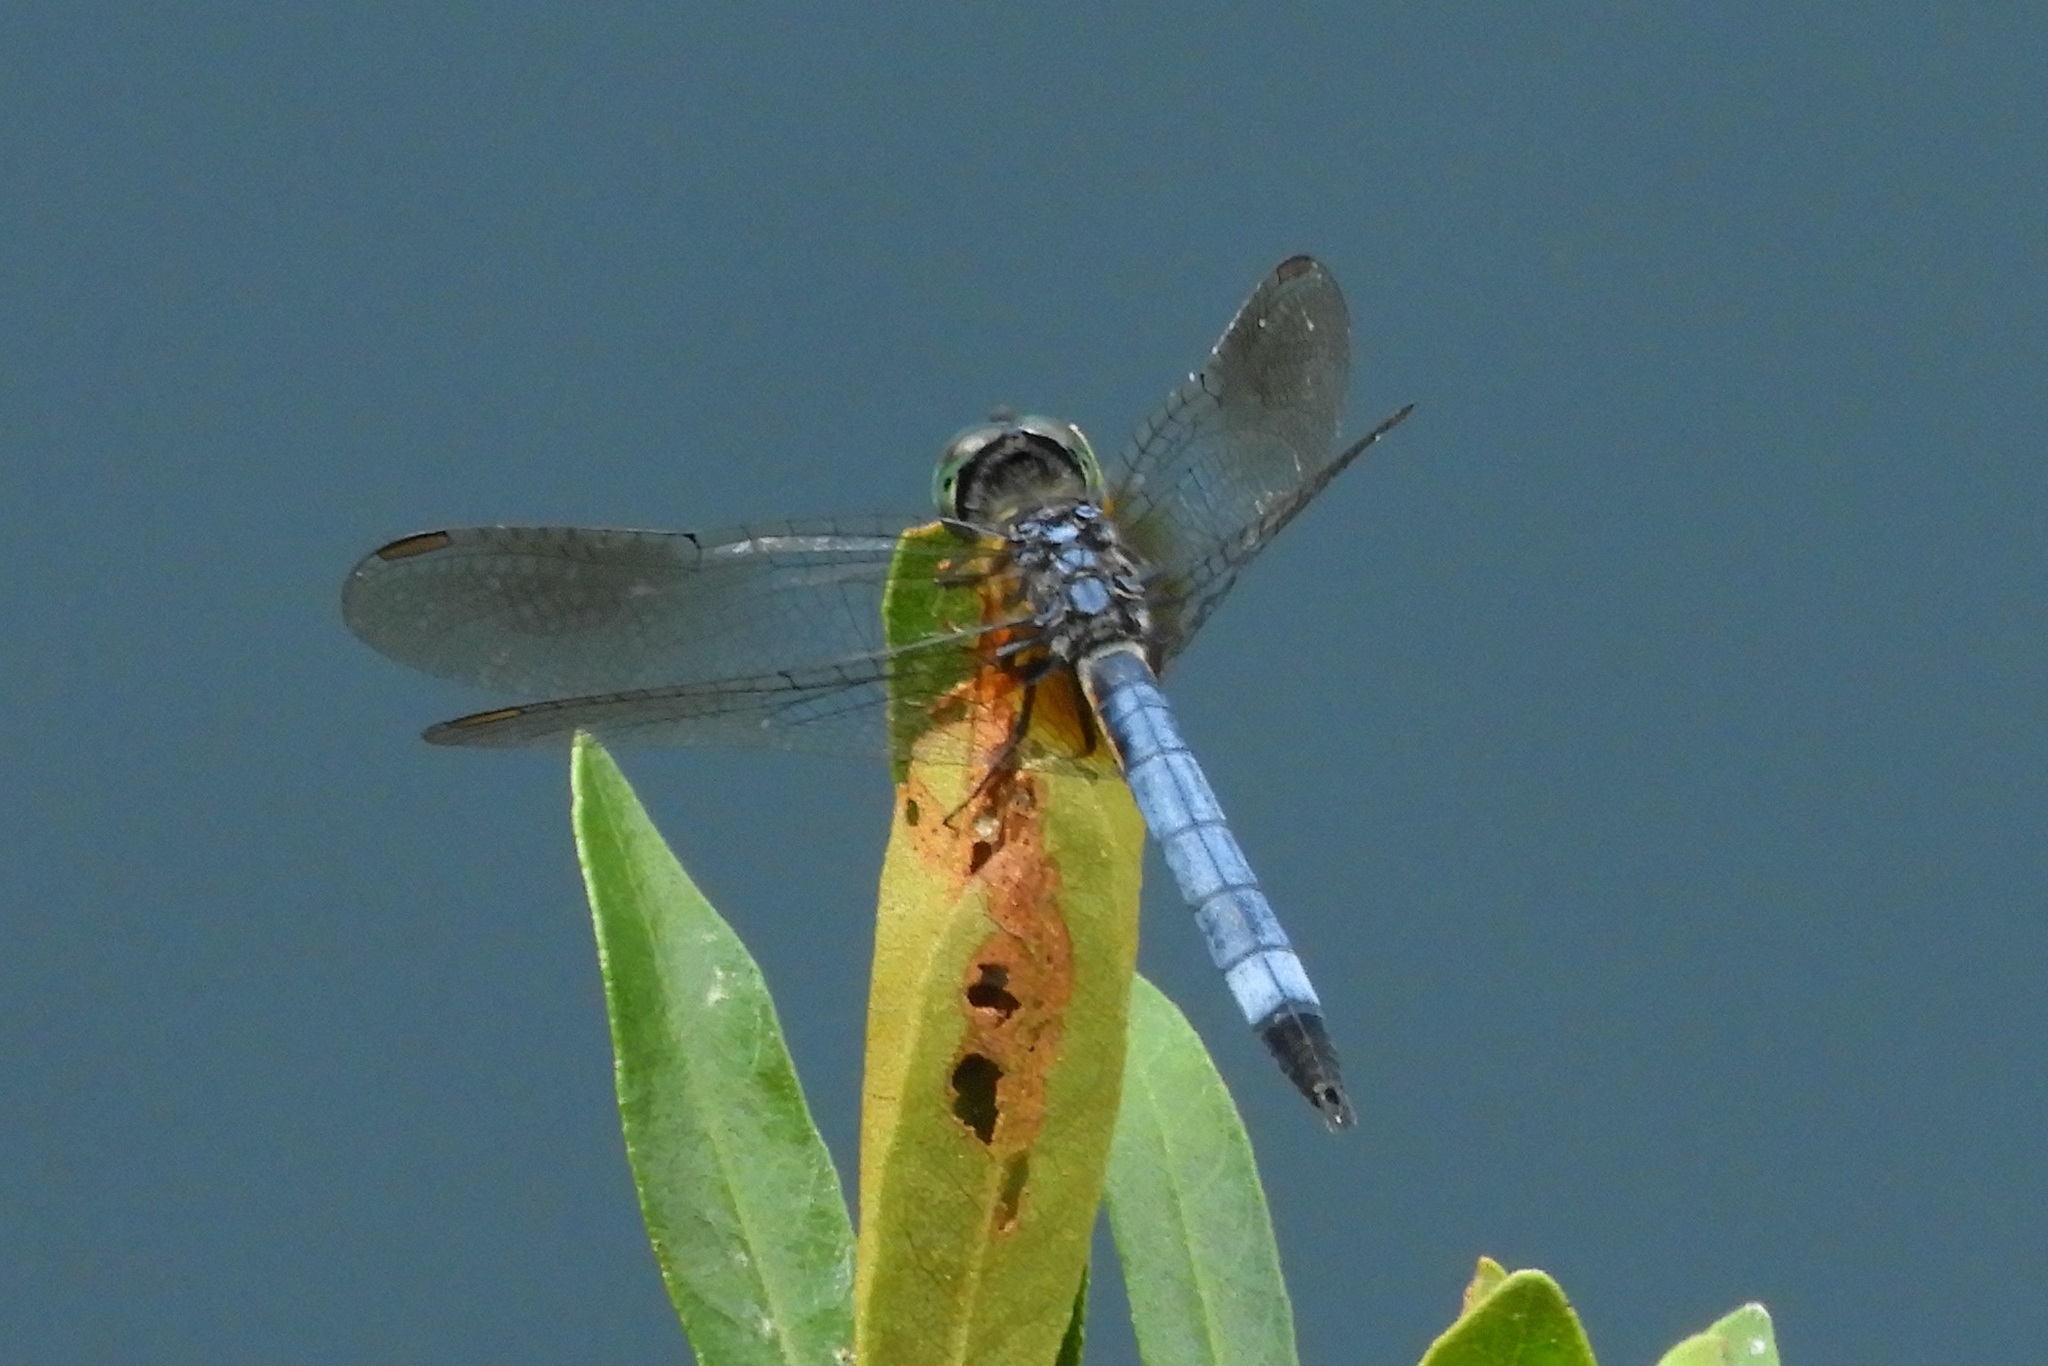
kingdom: Animalia
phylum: Arthropoda
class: Insecta
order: Odonata
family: Libellulidae
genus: Pachydiplax
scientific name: Pachydiplax longipennis
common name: Blue dasher
